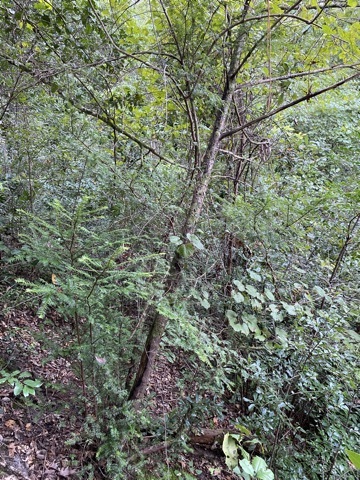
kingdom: Plantae
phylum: Tracheophyta
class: Pinopsida
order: Pinales
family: Taxaceae
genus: Taxus
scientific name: Taxus floridana
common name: Florida yew
